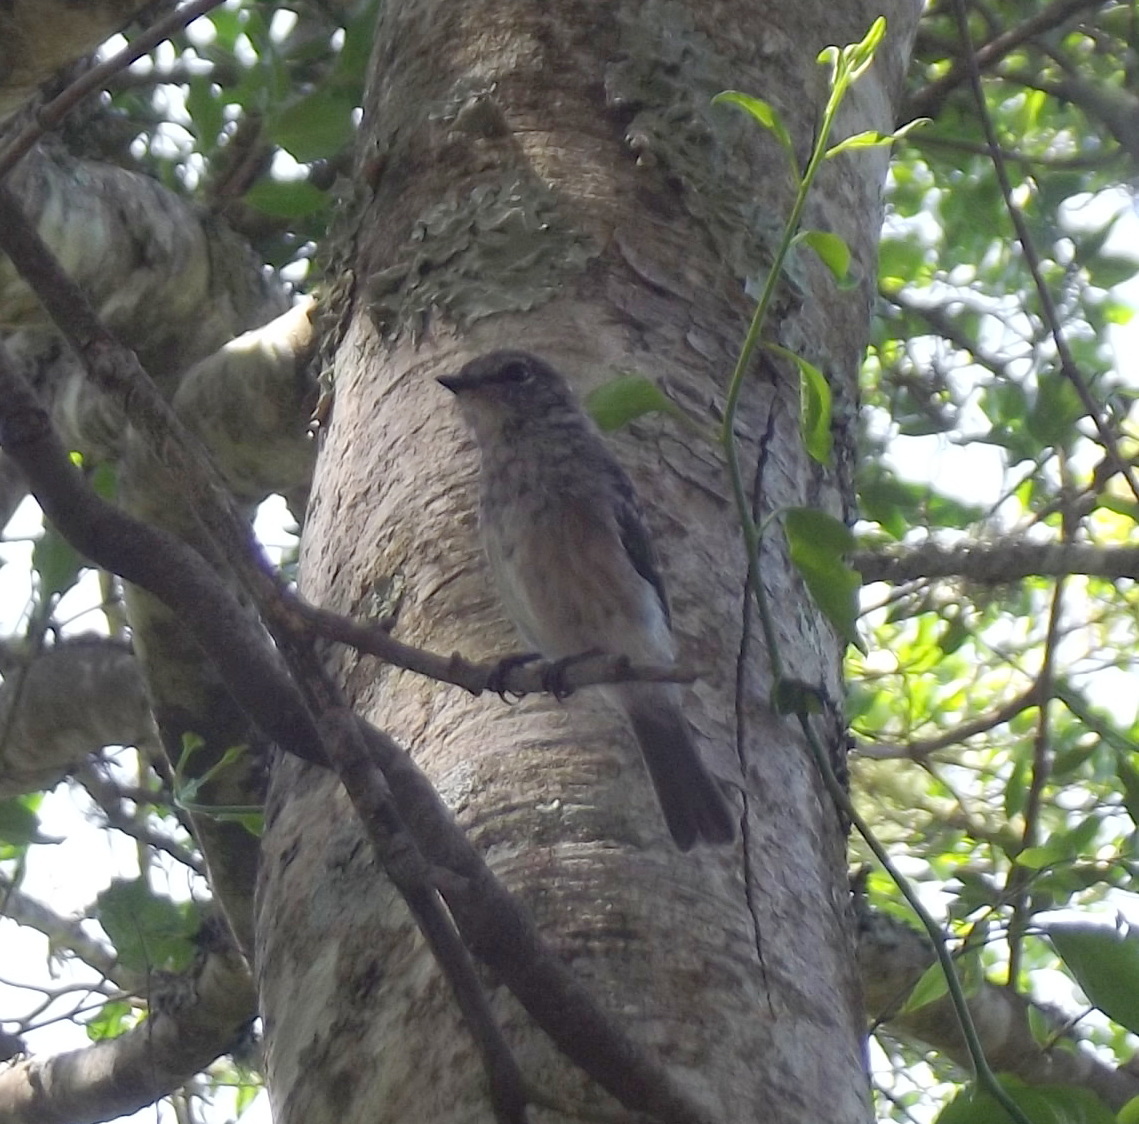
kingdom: Animalia
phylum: Chordata
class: Aves
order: Passeriformes
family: Muscicapidae
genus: Muscicapa
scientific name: Muscicapa adusta
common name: African dusky flycatcher
